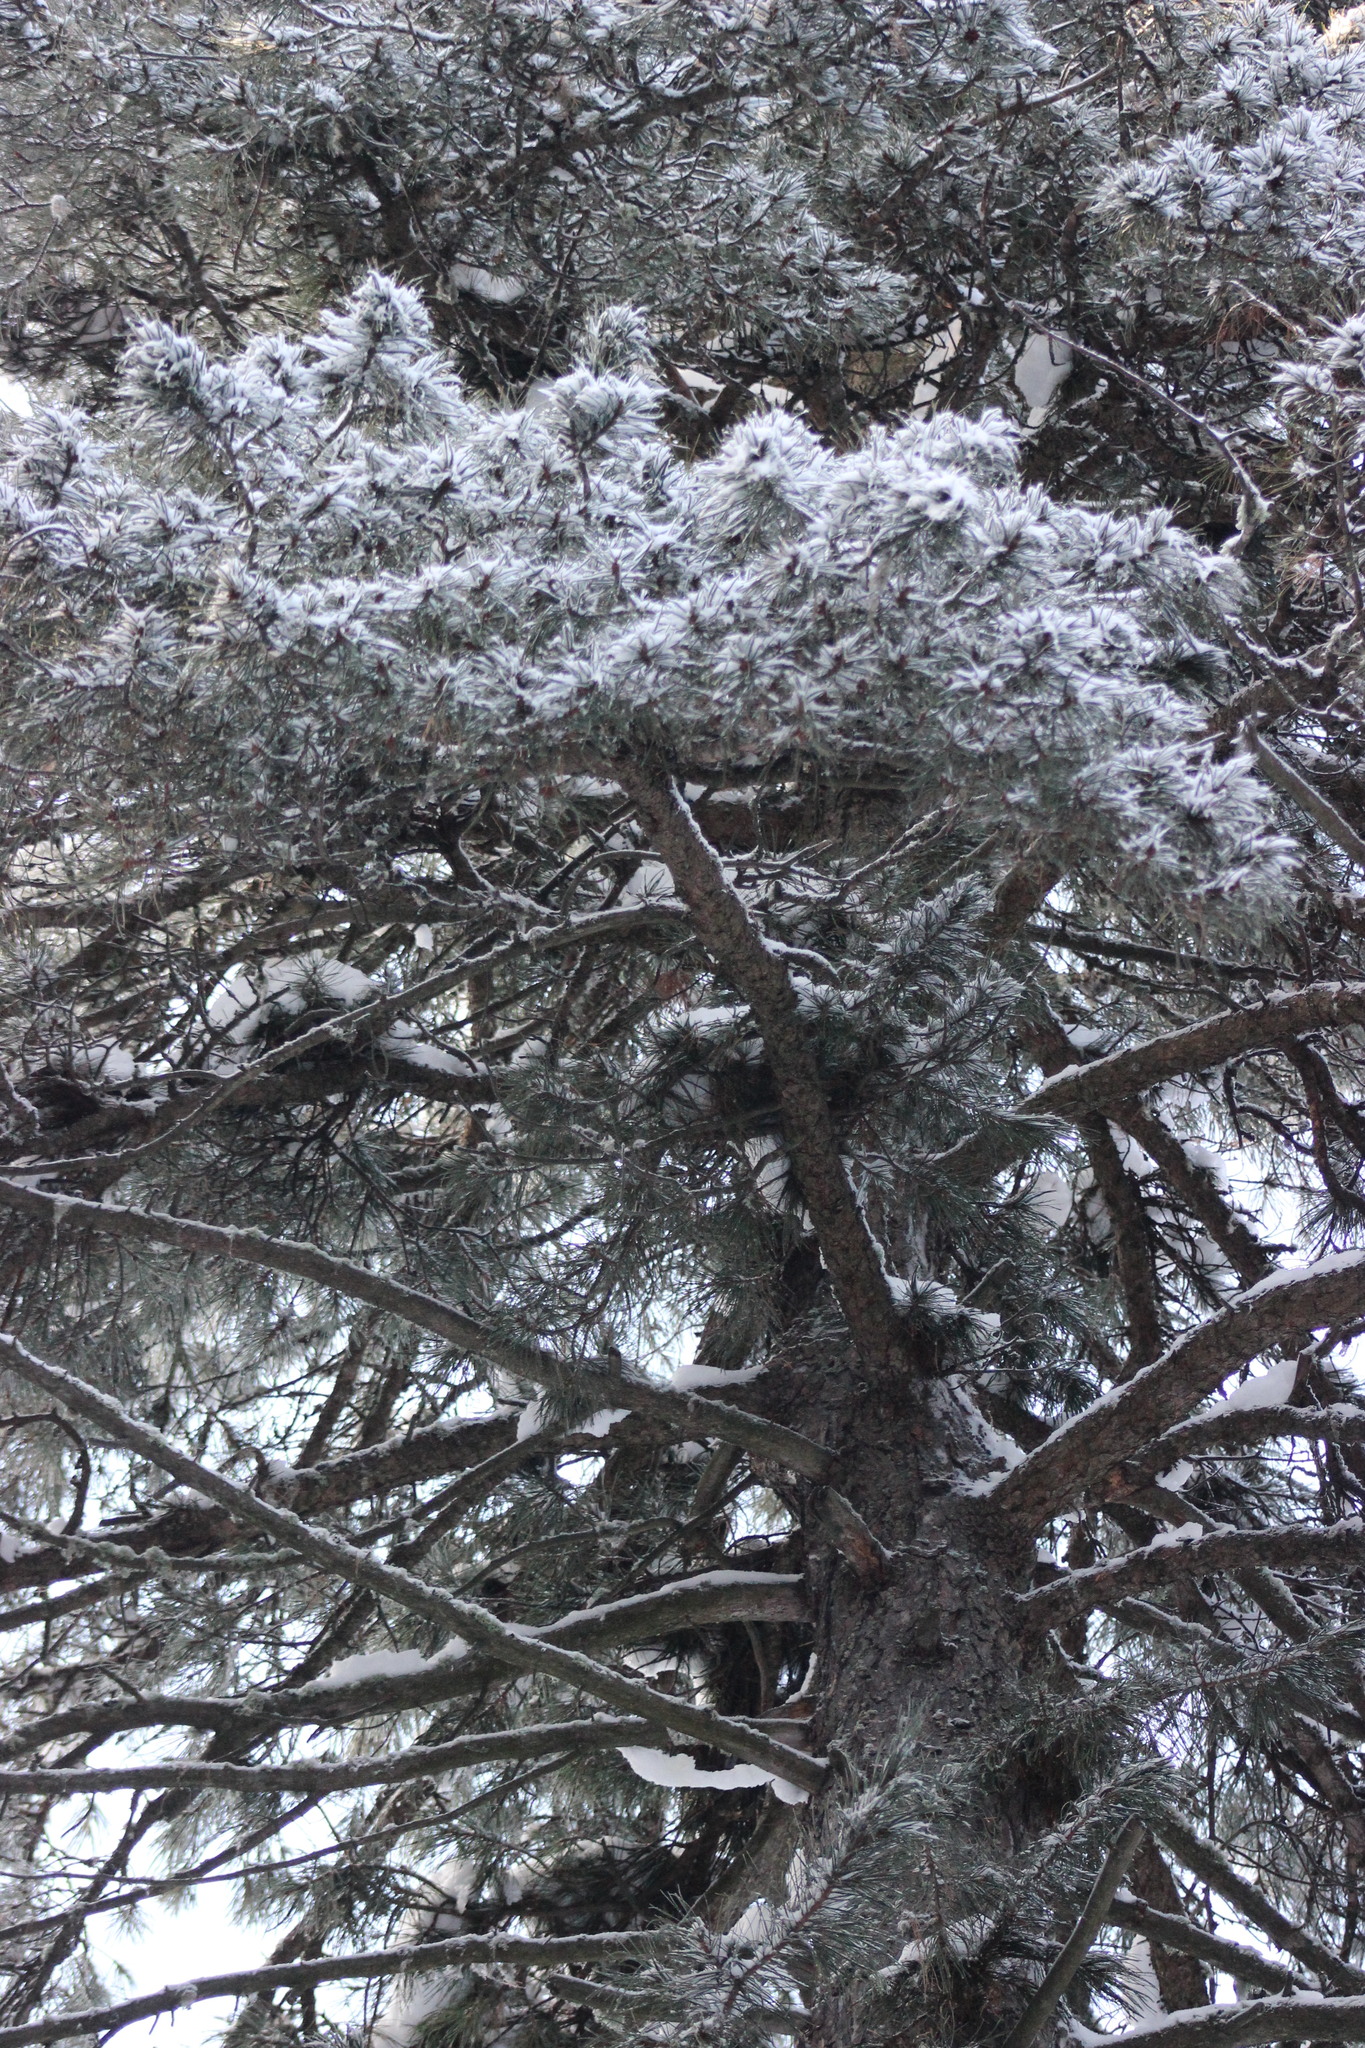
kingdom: Plantae
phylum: Tracheophyta
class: Pinopsida
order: Pinales
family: Pinaceae
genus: Pinus
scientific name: Pinus sibirica
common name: Siberian pine
